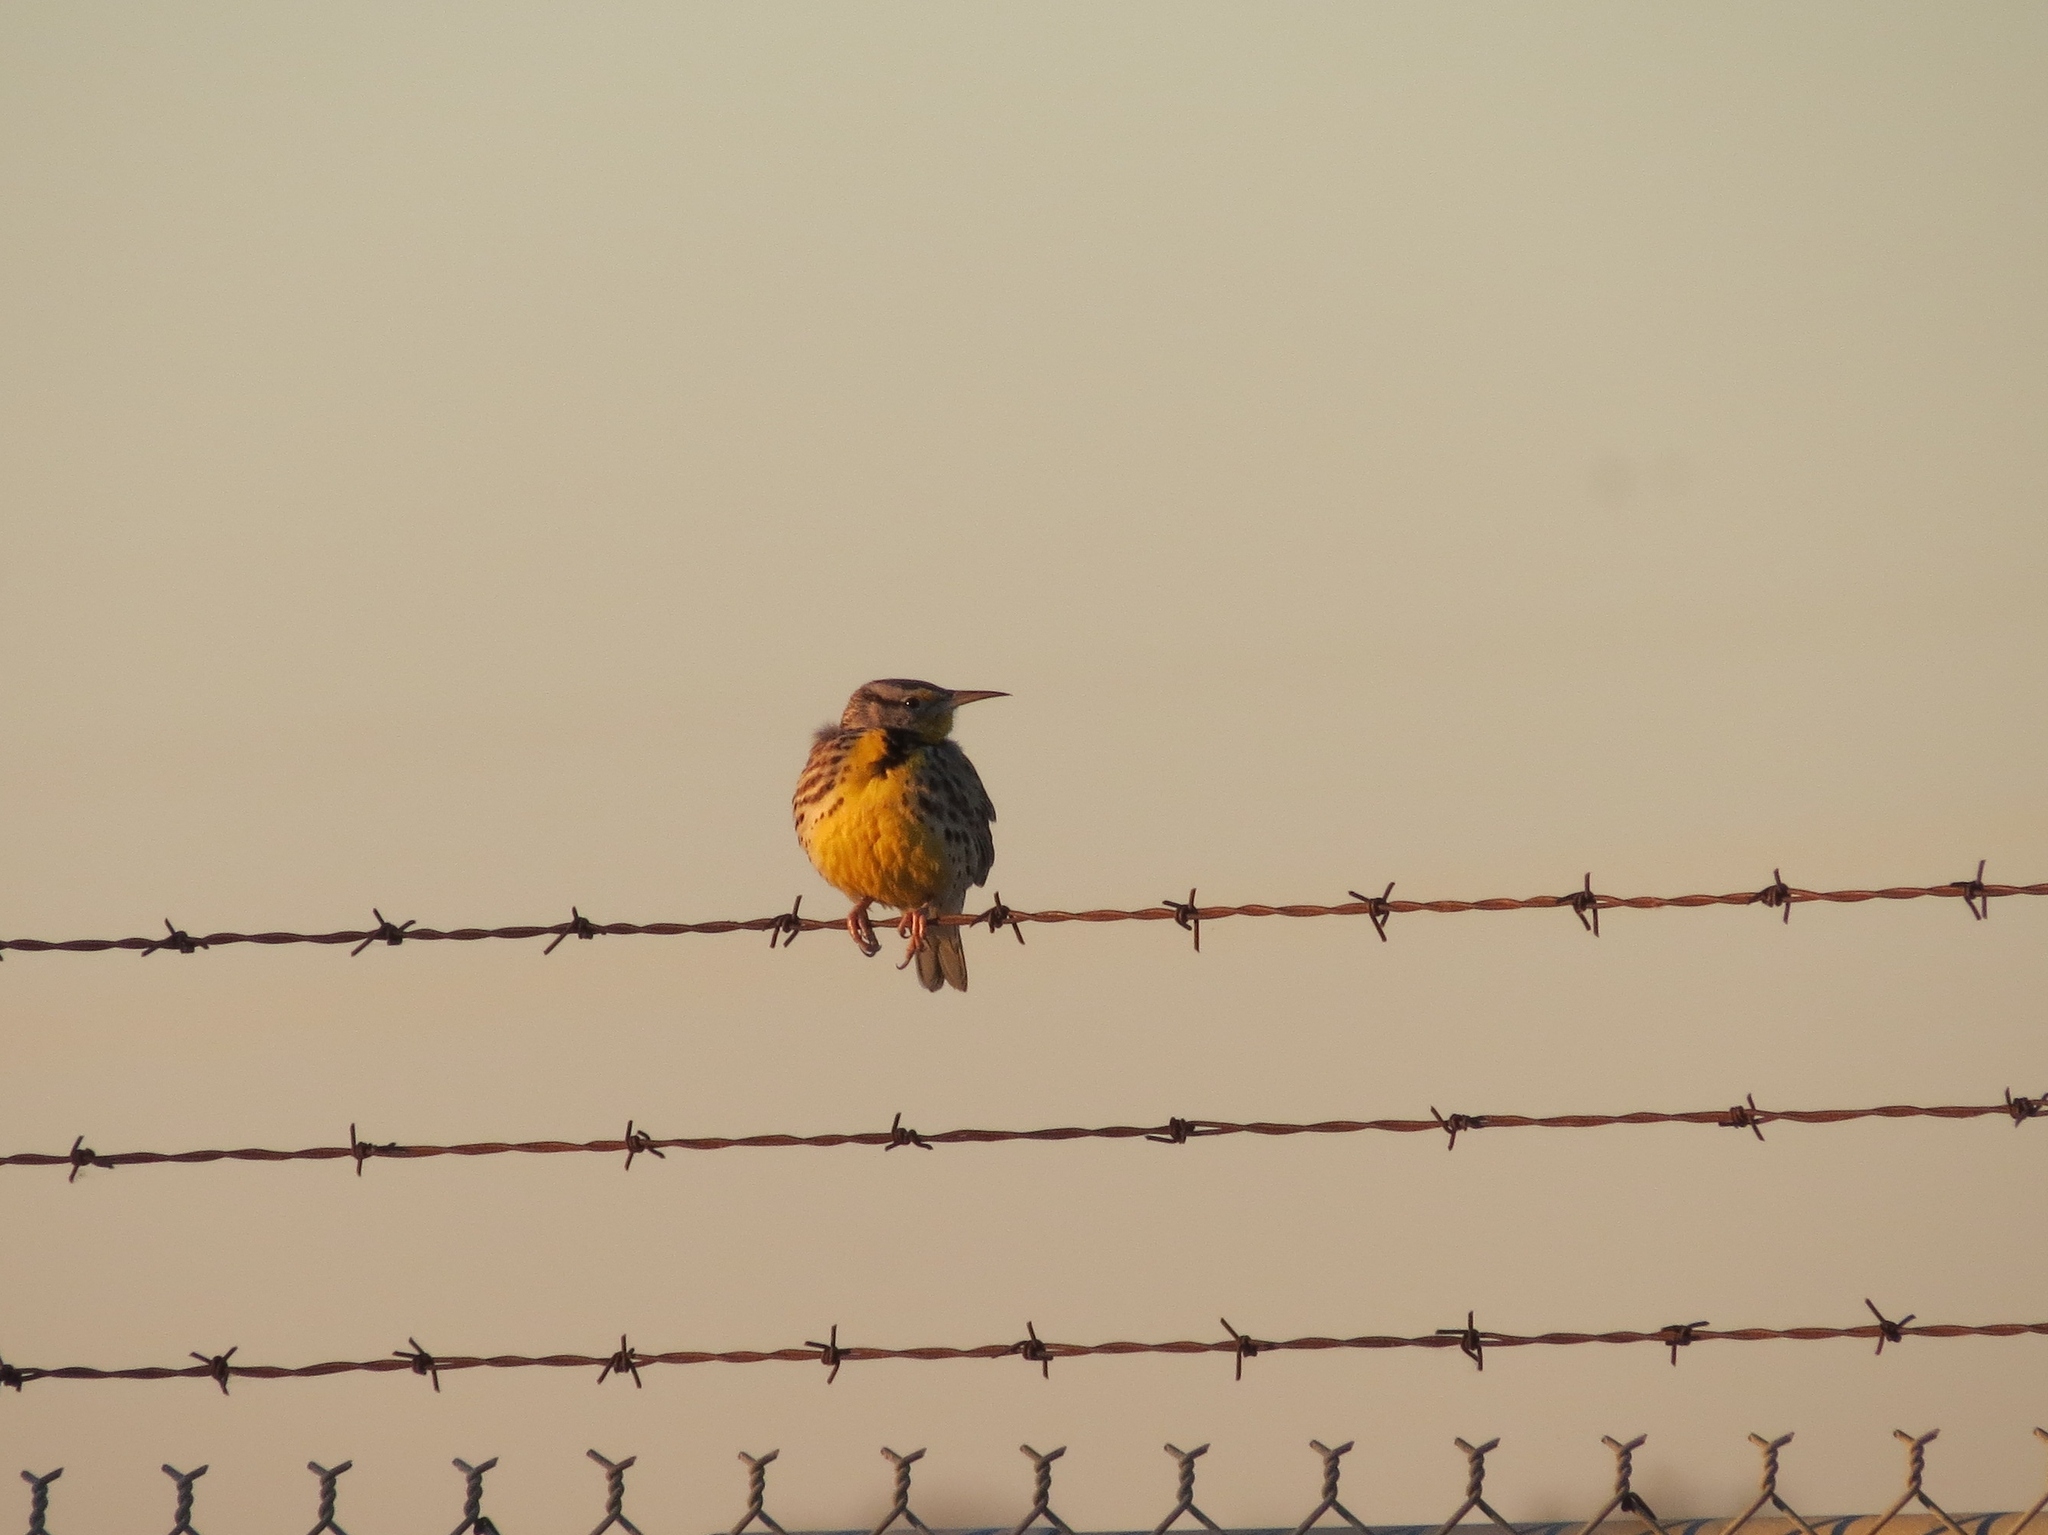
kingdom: Animalia
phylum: Chordata
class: Aves
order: Passeriformes
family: Icteridae
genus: Sturnella
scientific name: Sturnella
